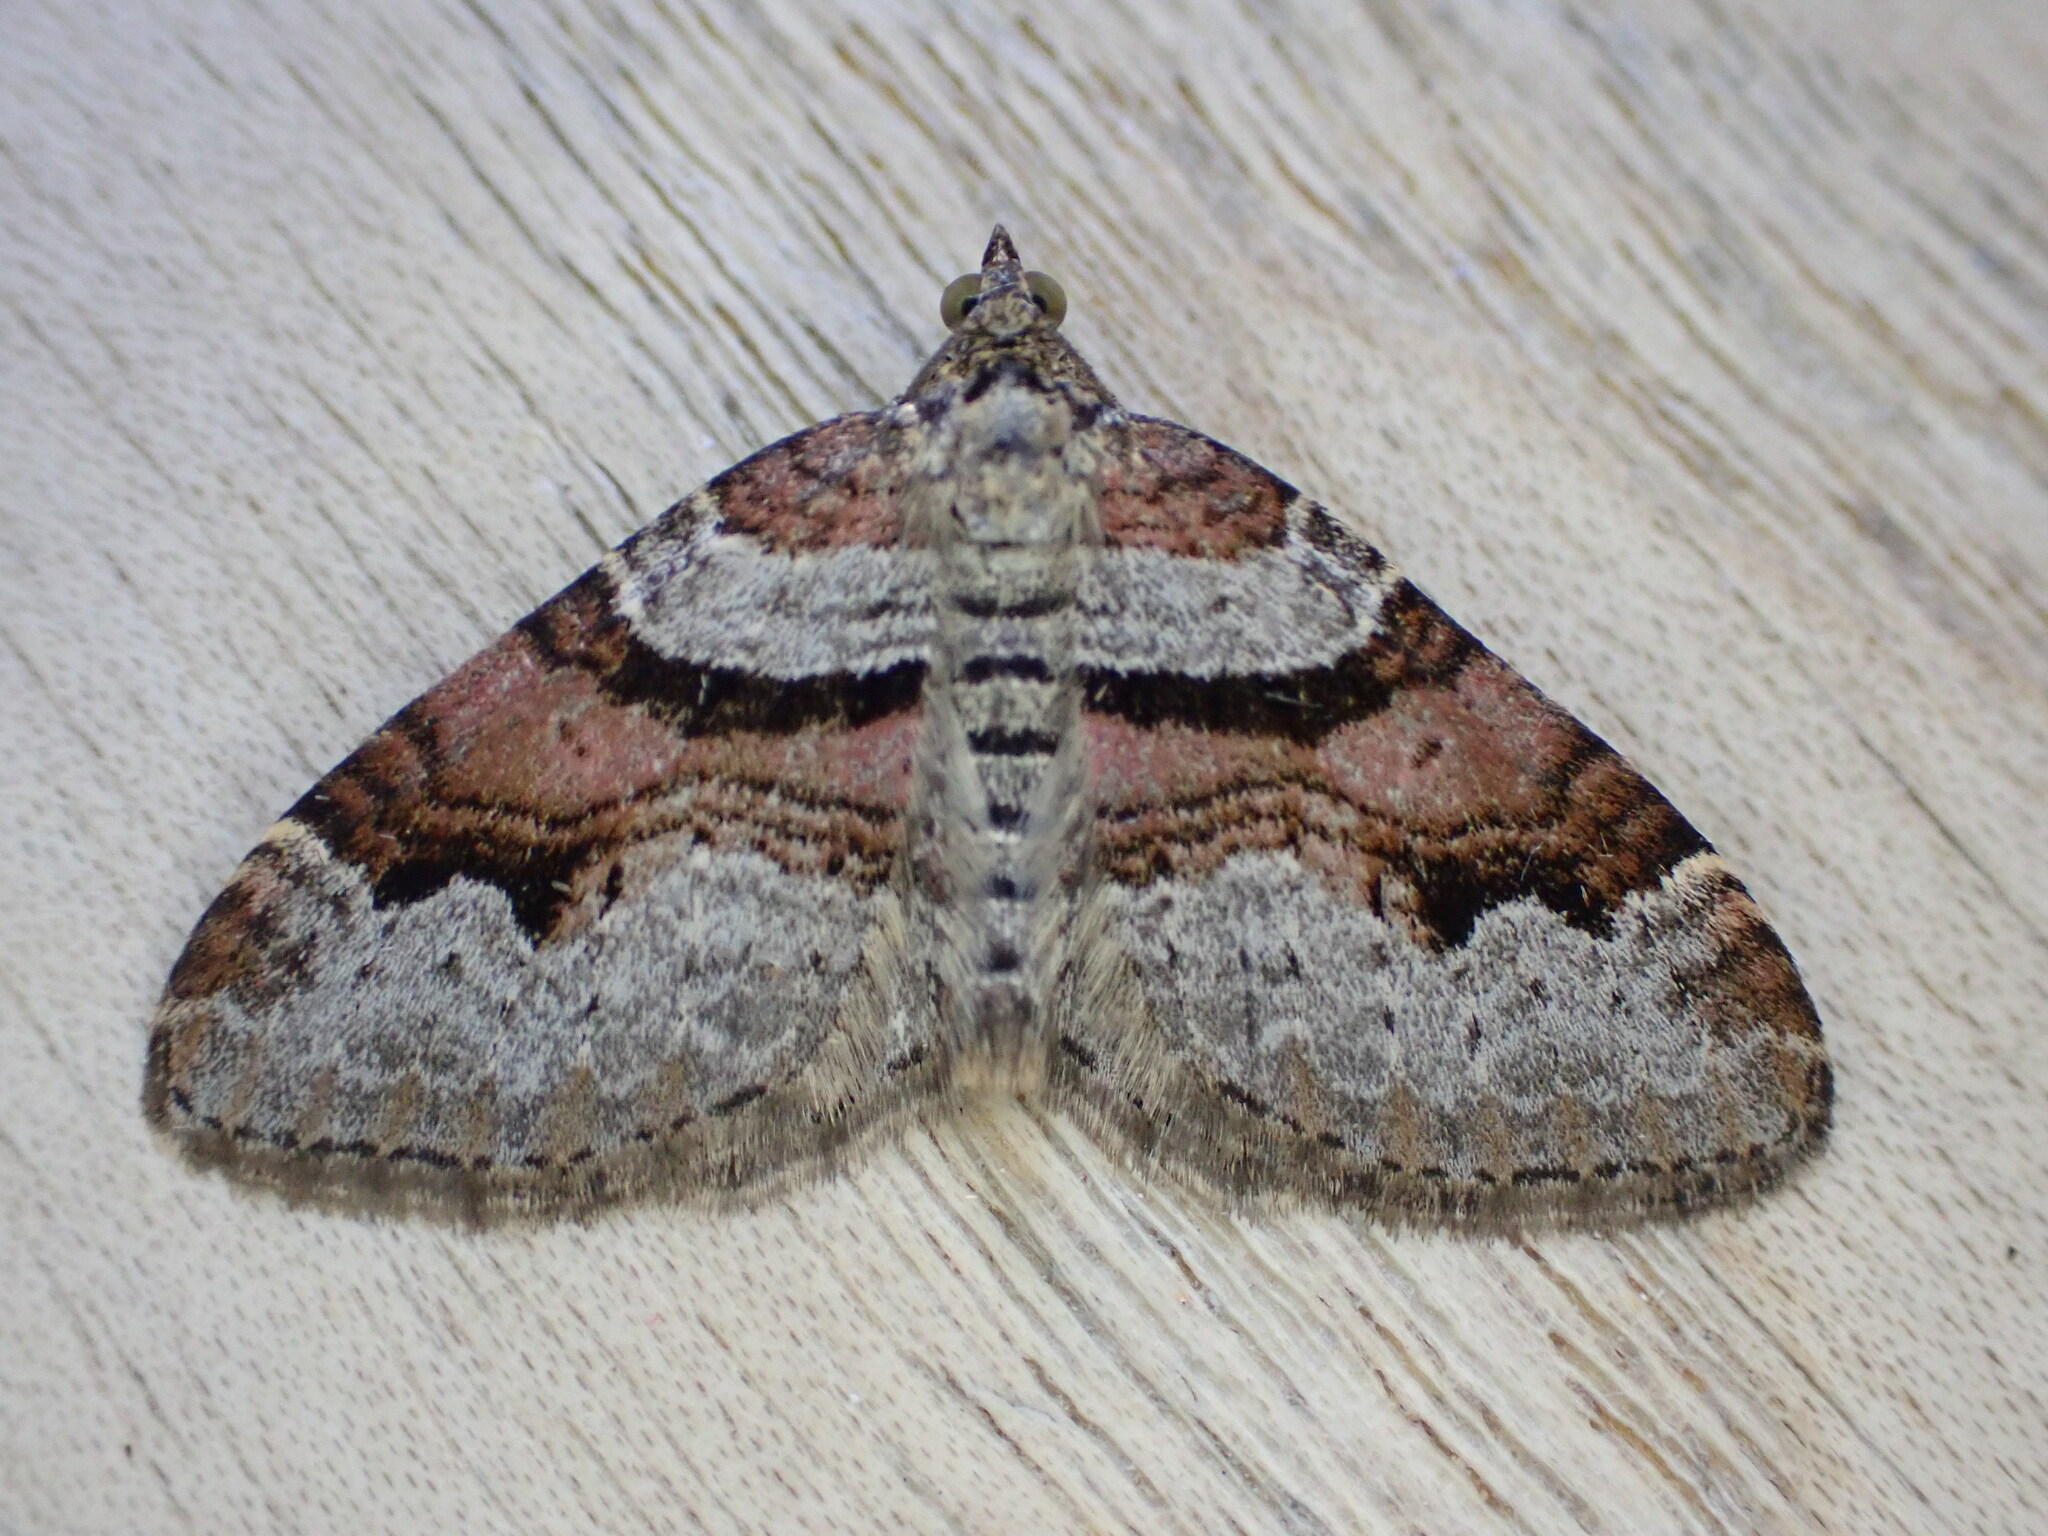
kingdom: Animalia
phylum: Arthropoda
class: Insecta
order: Lepidoptera
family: Geometridae
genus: Xanthorhoe
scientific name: Xanthorhoe designata
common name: Flame carpet
